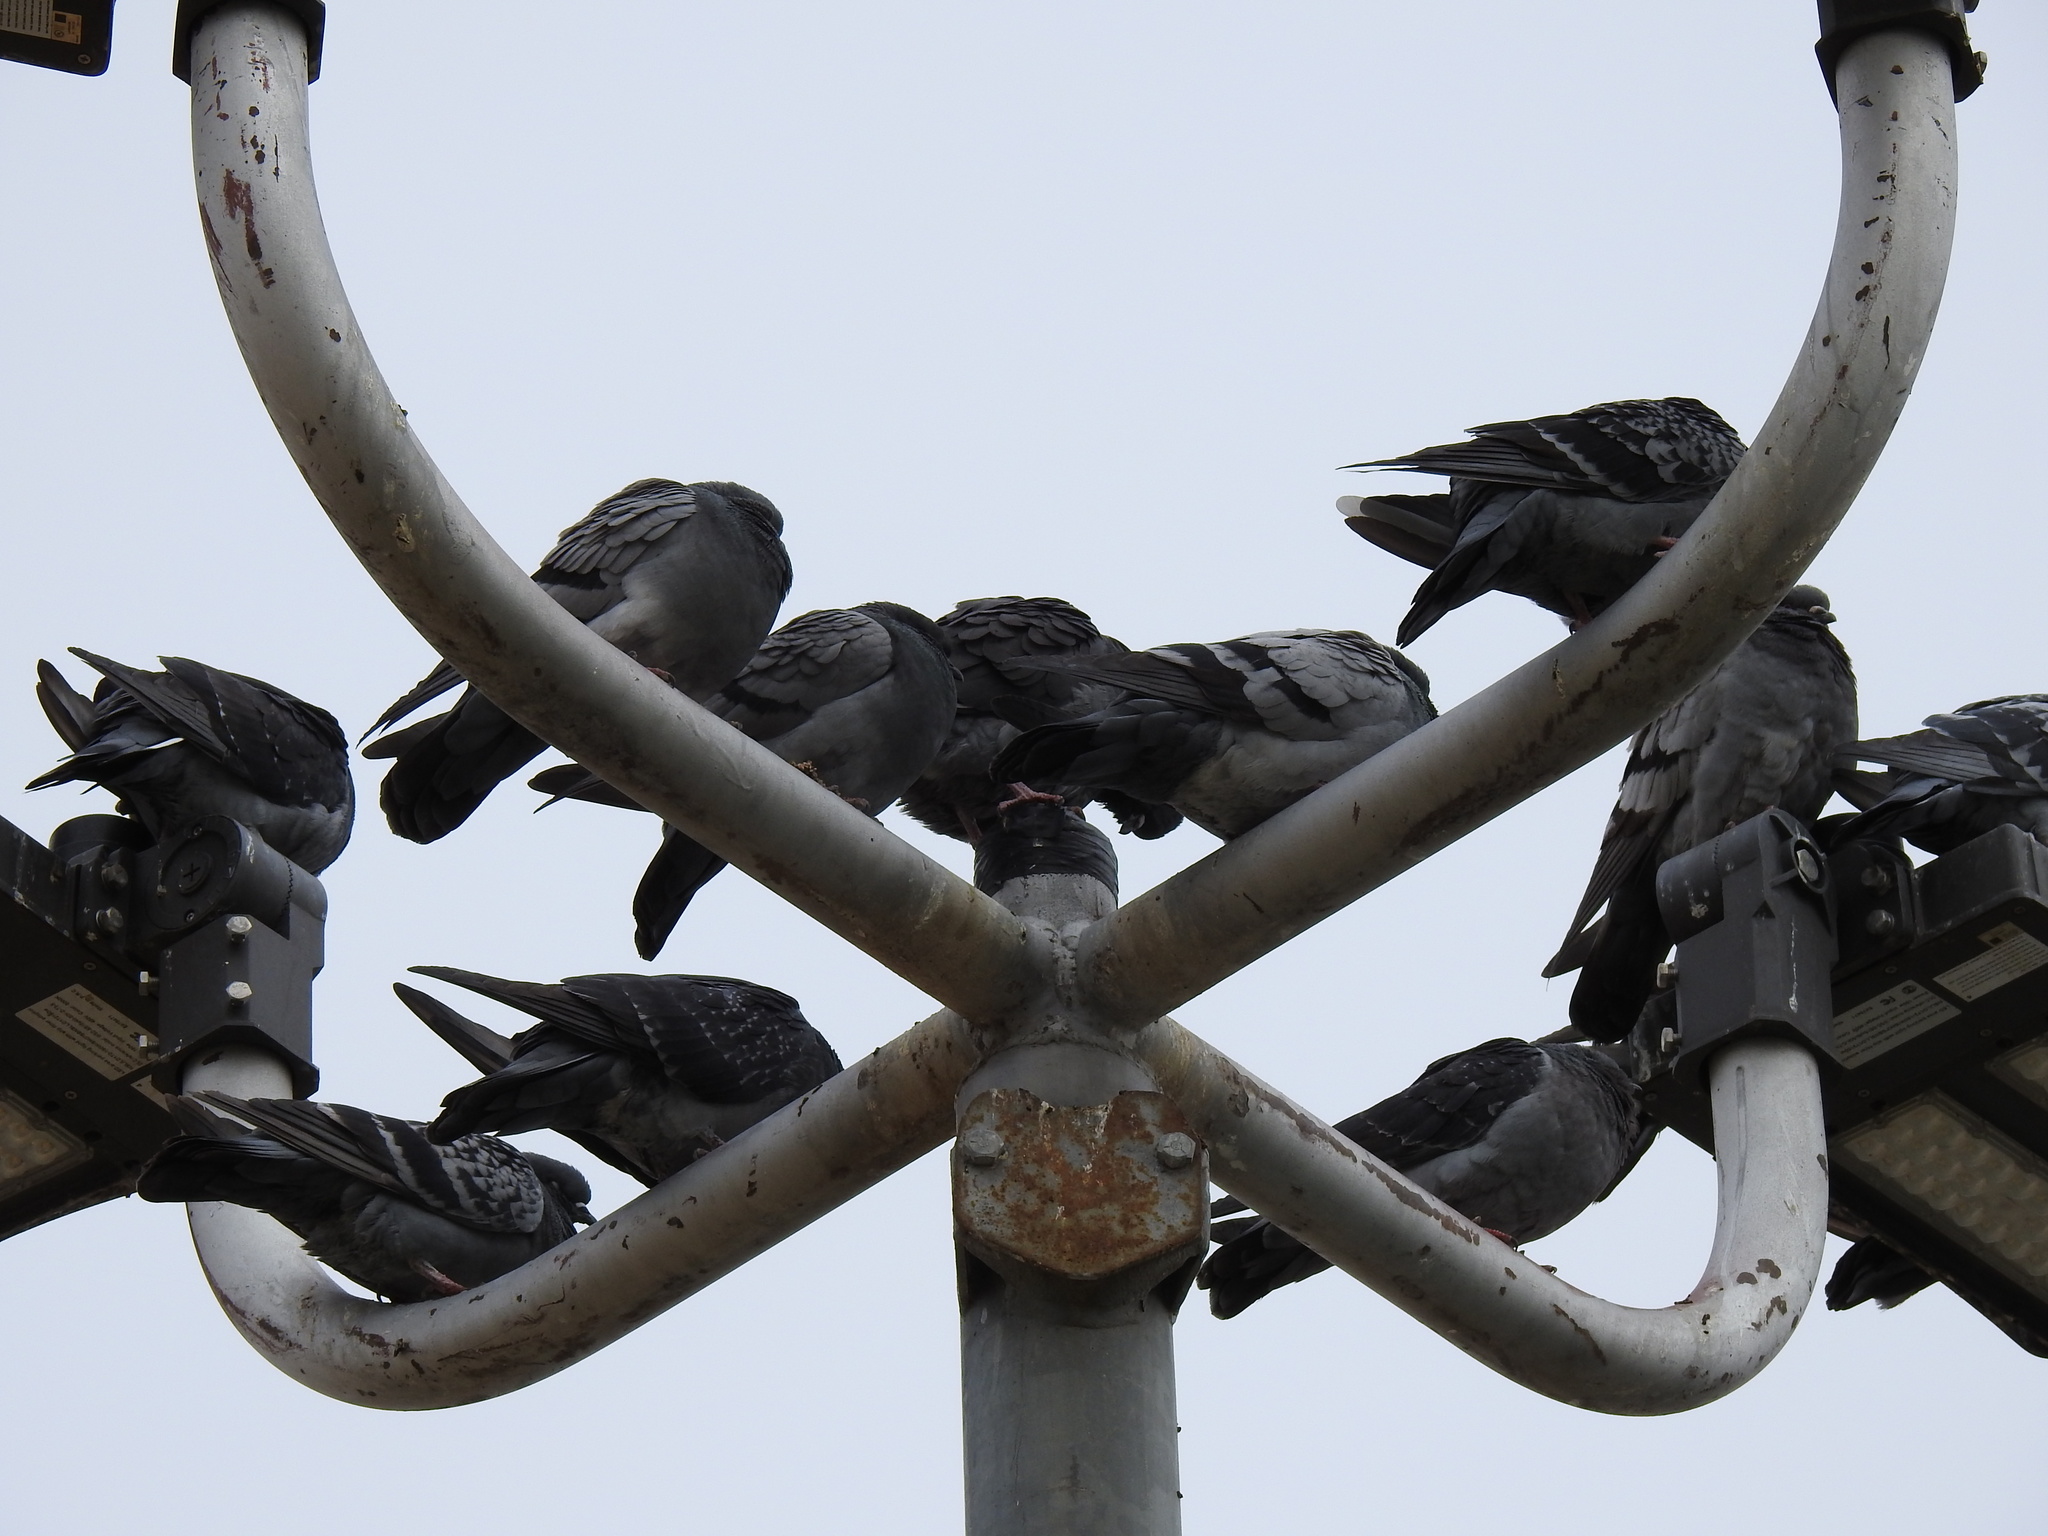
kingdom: Animalia
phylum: Chordata
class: Aves
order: Columbiformes
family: Columbidae
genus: Columba
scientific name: Columba livia
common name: Rock pigeon
